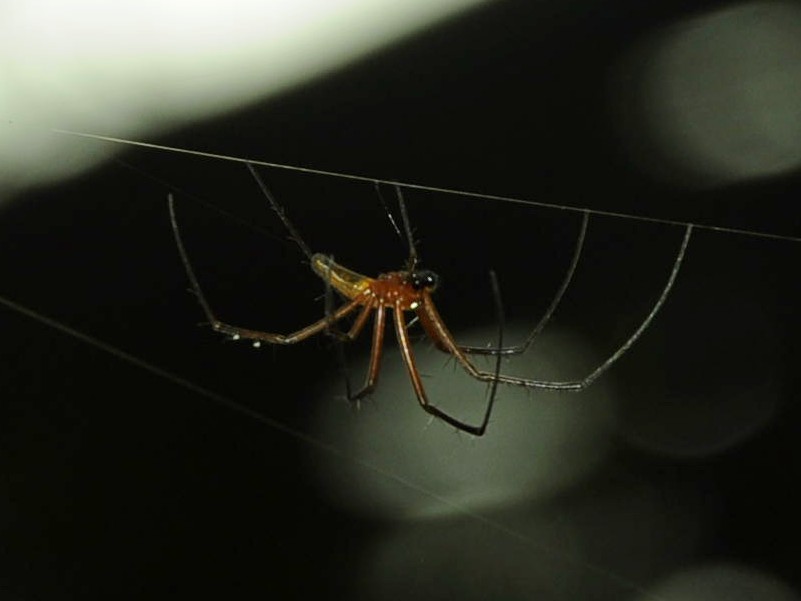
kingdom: Animalia
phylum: Arthropoda
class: Arachnida
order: Araneae
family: Araneidae
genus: Nephila
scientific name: Nephila pilipes
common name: Giant golden orb weaver
